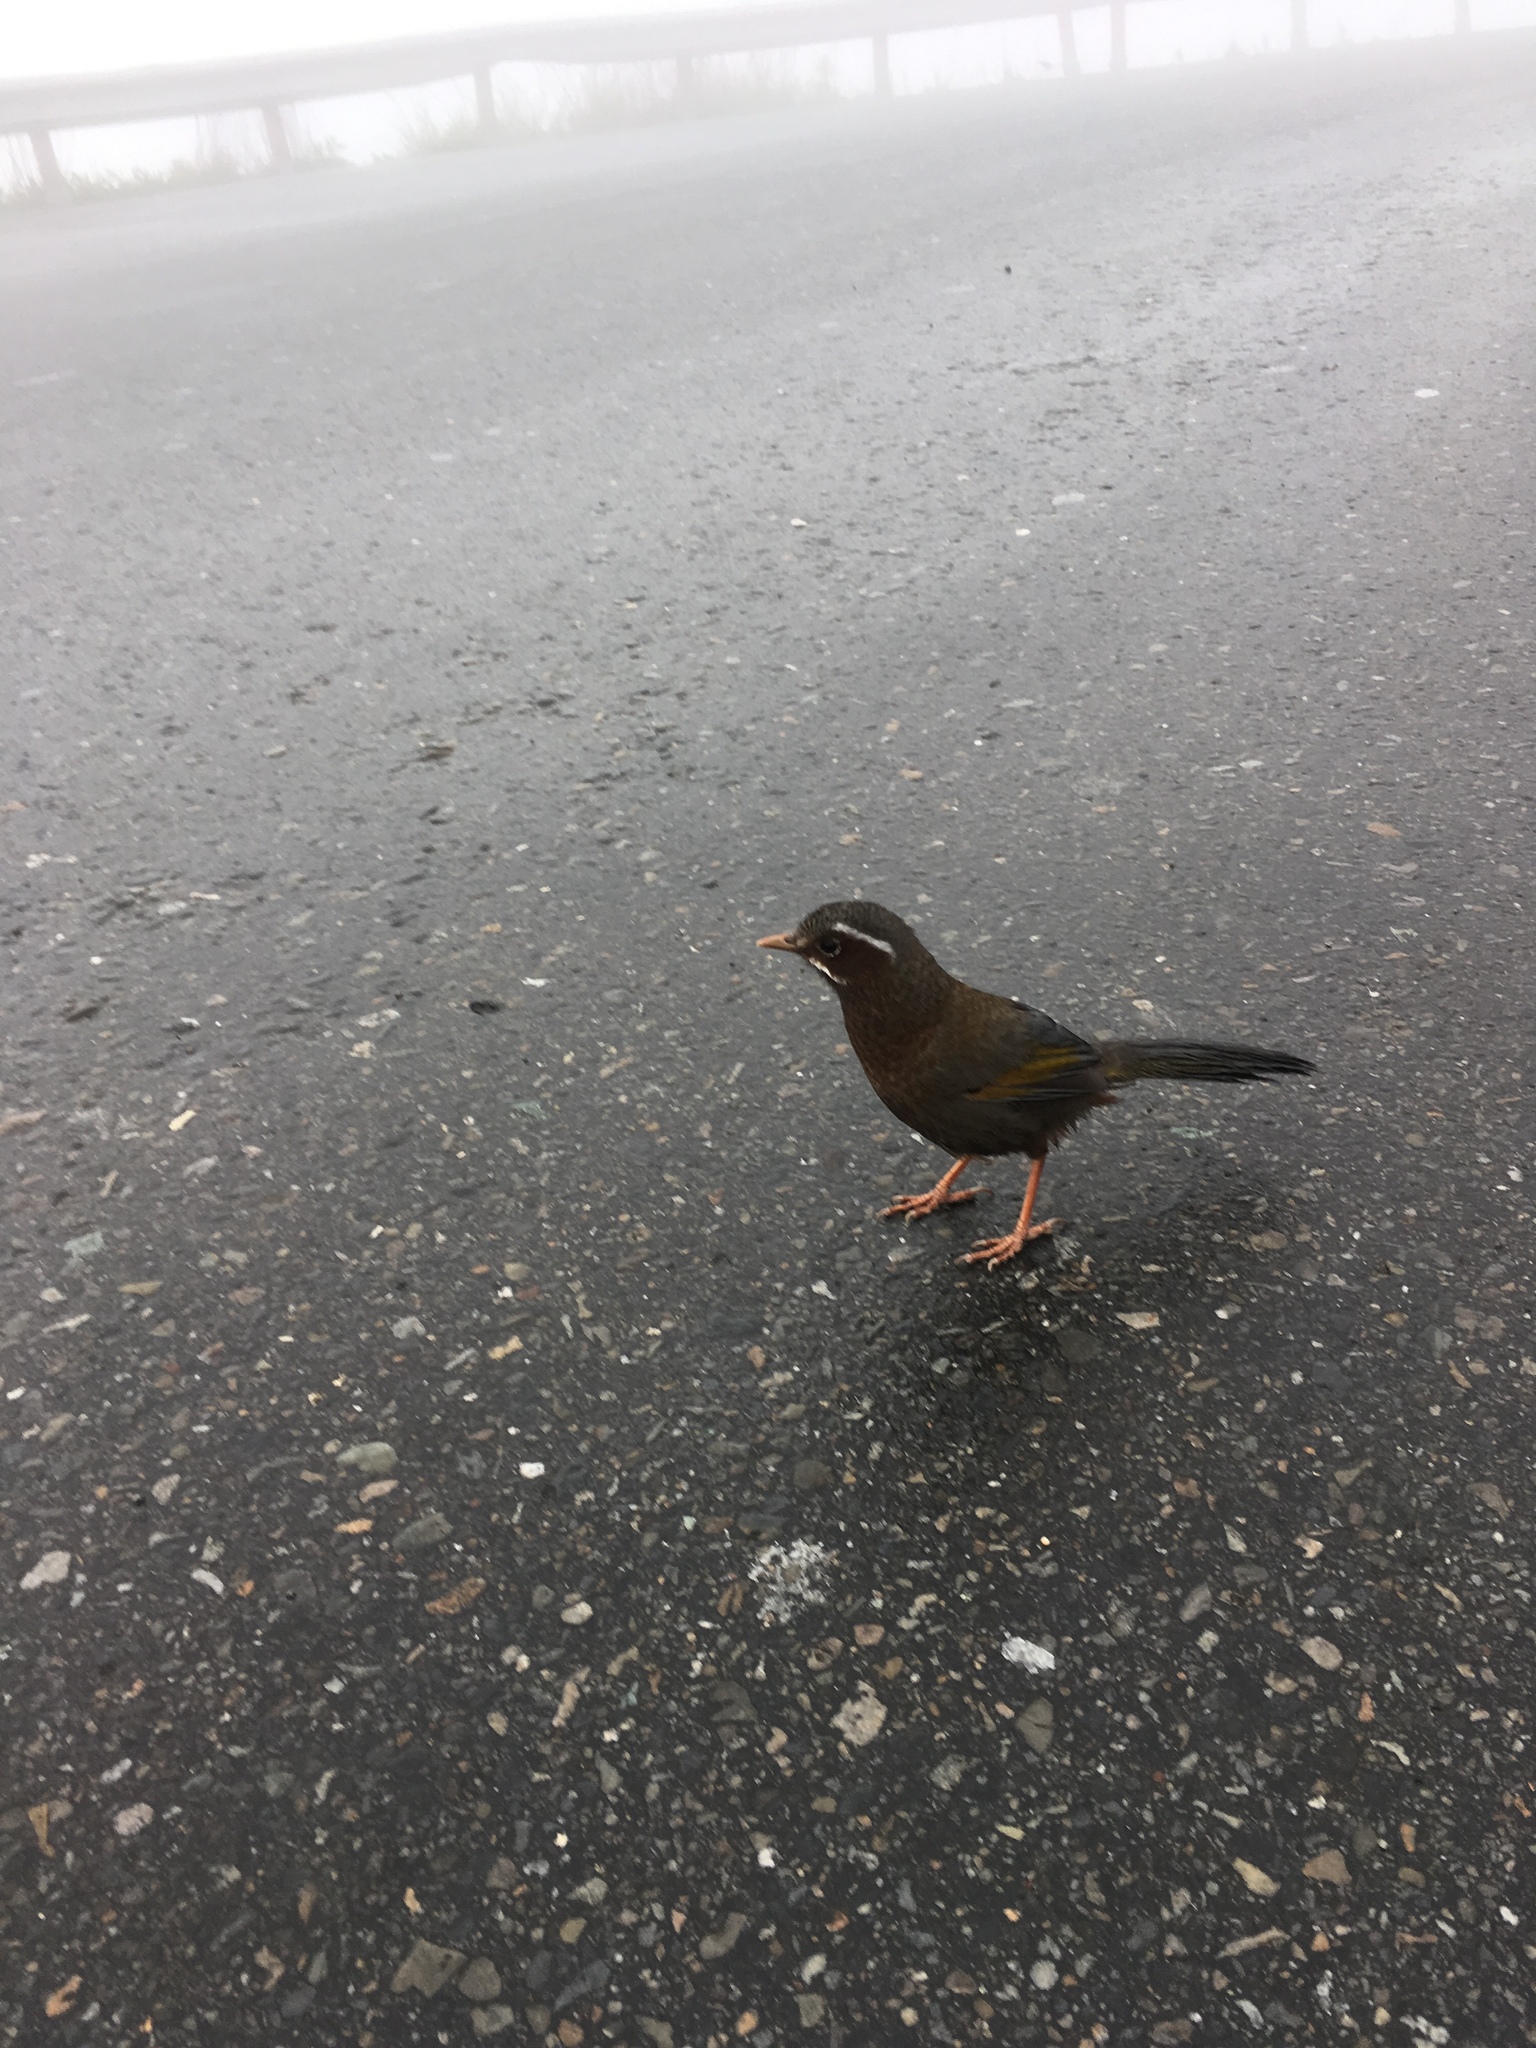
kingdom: Animalia
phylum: Chordata
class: Aves
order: Passeriformes
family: Leiothrichidae
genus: Trochalopteron
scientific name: Trochalopteron morrisonianum
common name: White-whiskered laughingthrush
